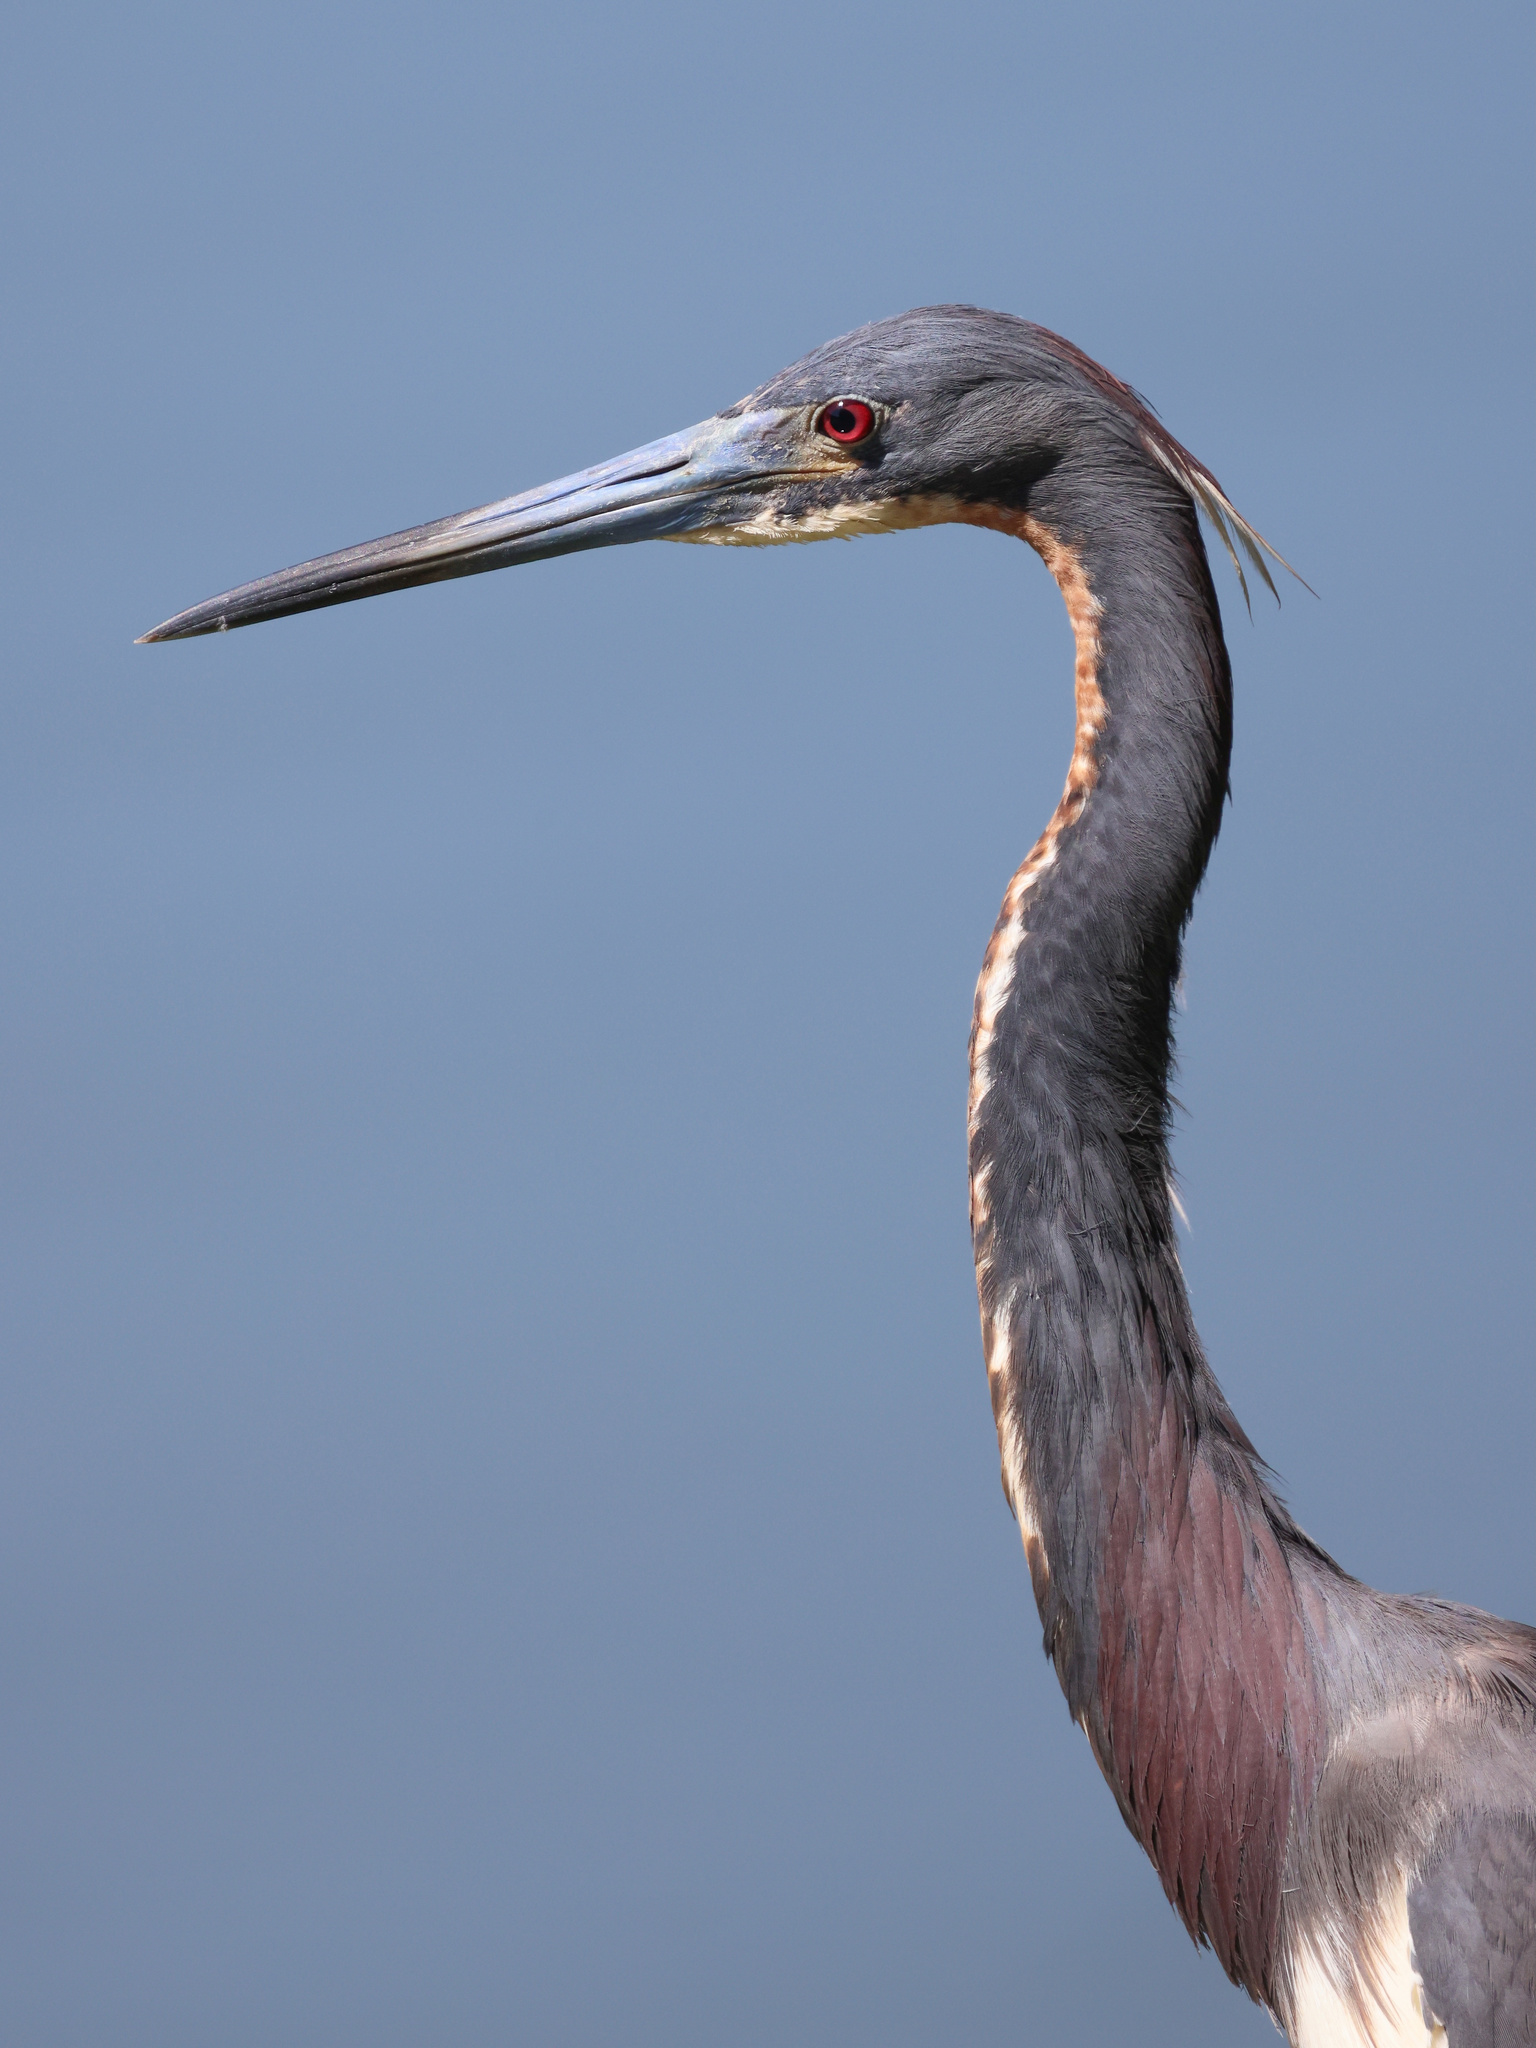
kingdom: Animalia
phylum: Chordata
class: Aves
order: Pelecaniformes
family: Ardeidae
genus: Egretta
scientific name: Egretta tricolor
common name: Tricolored heron
